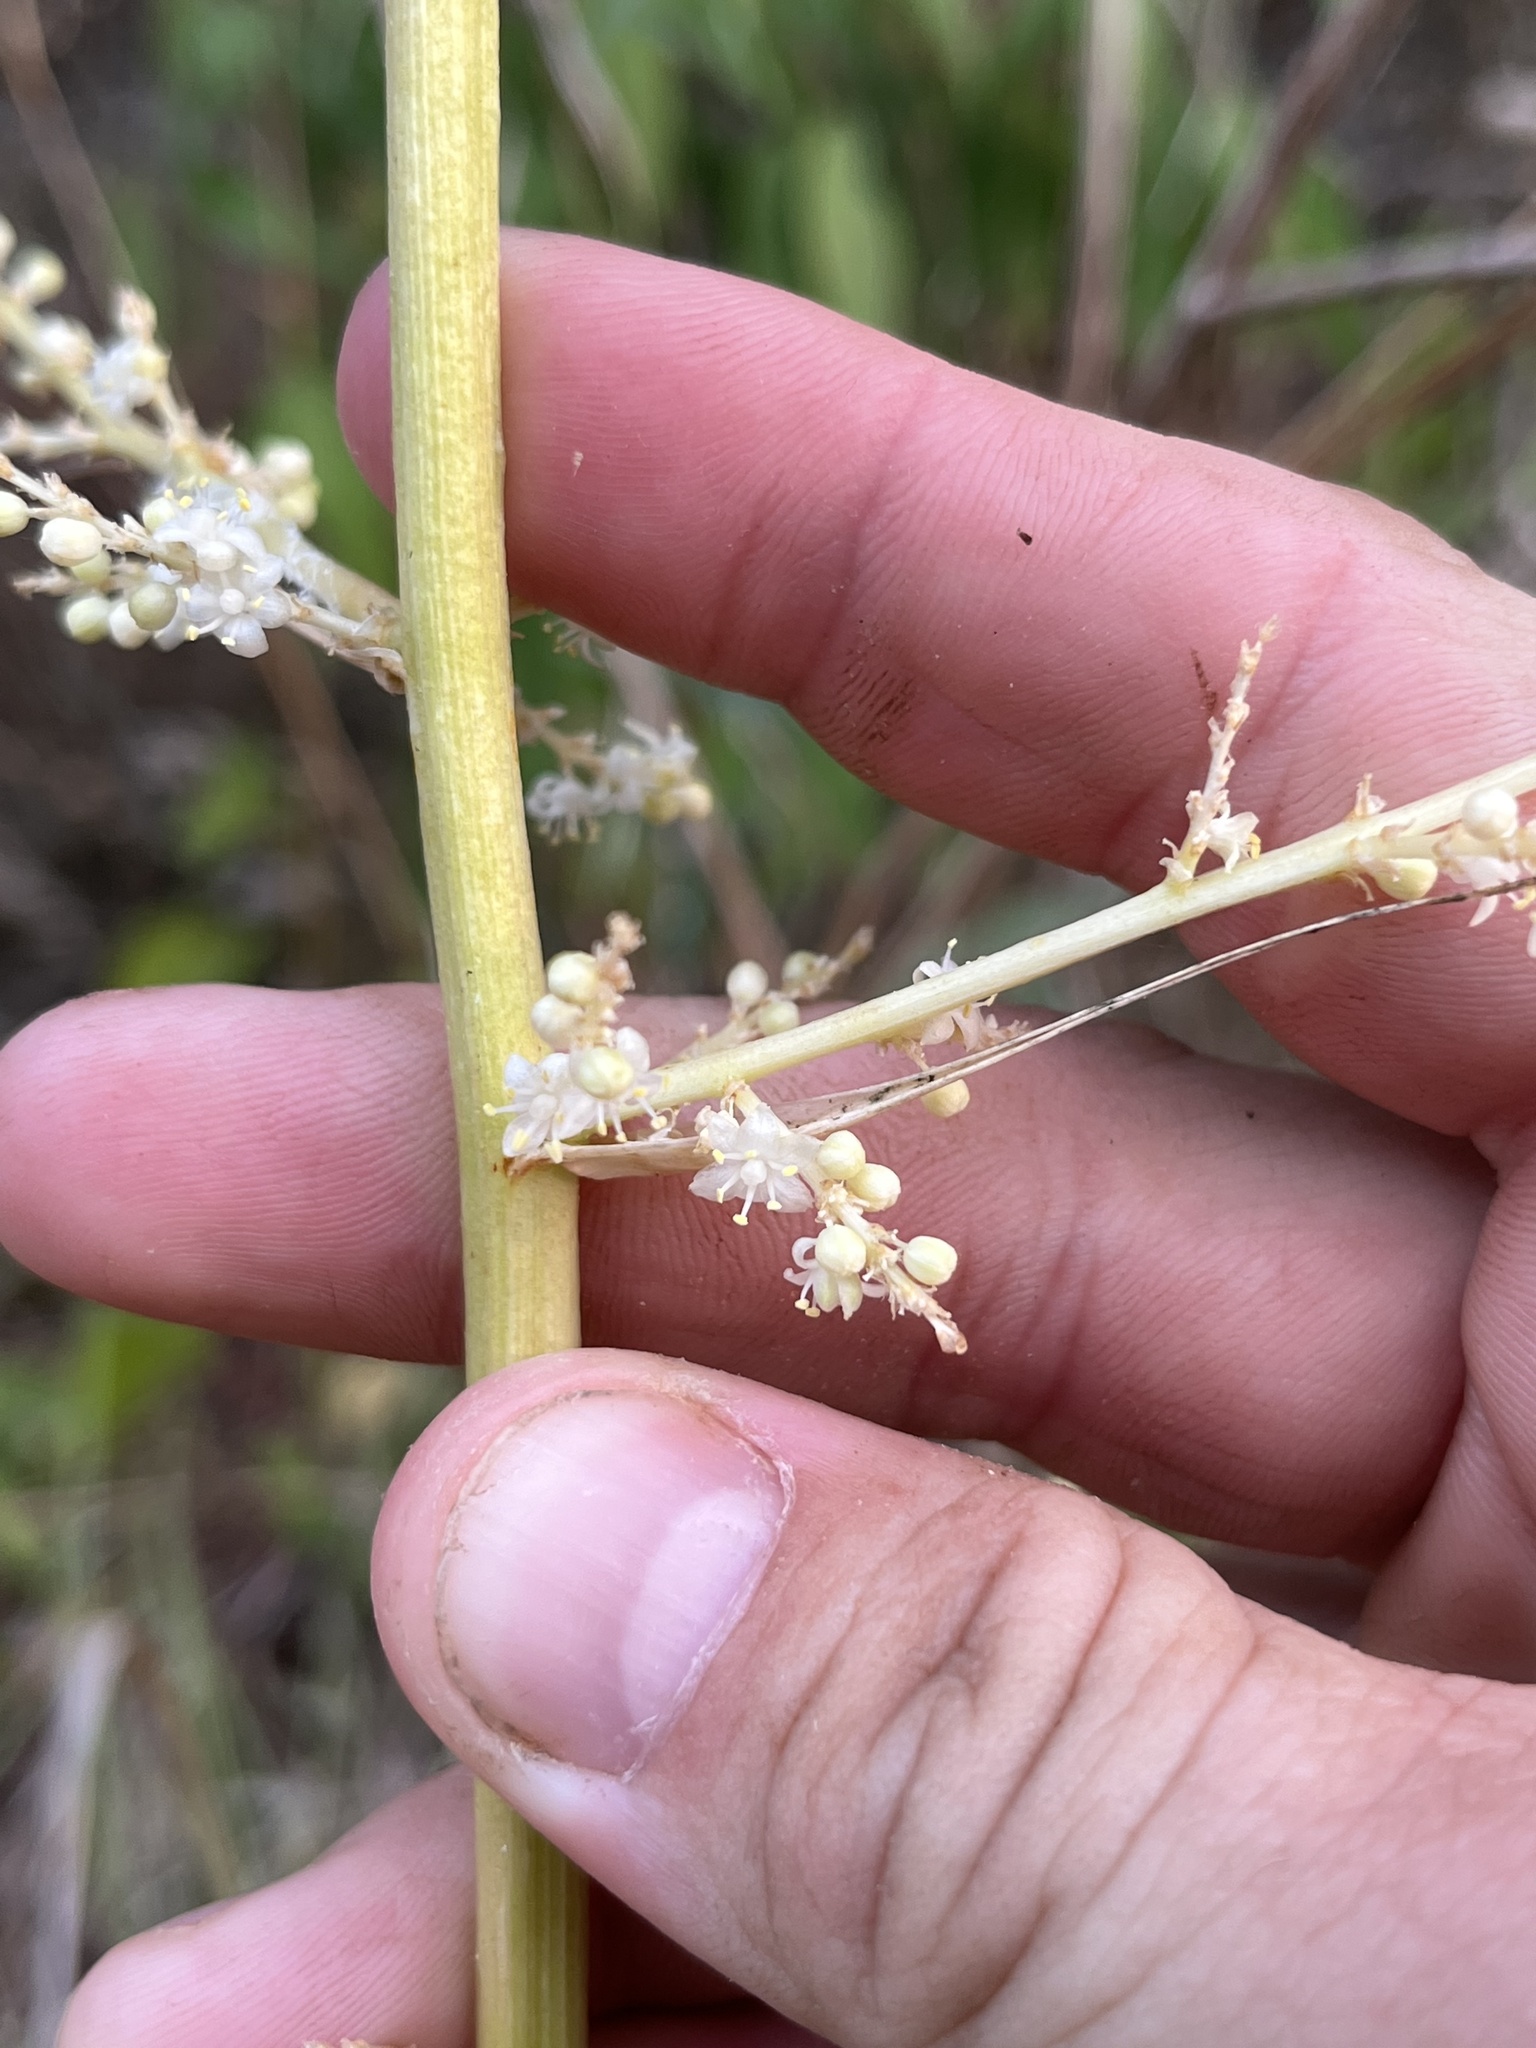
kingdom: Plantae
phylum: Tracheophyta
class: Liliopsida
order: Asparagales
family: Asparagaceae
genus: Nolina
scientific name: Nolina lindheimeriana
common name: Lindheimer's bear-grass
